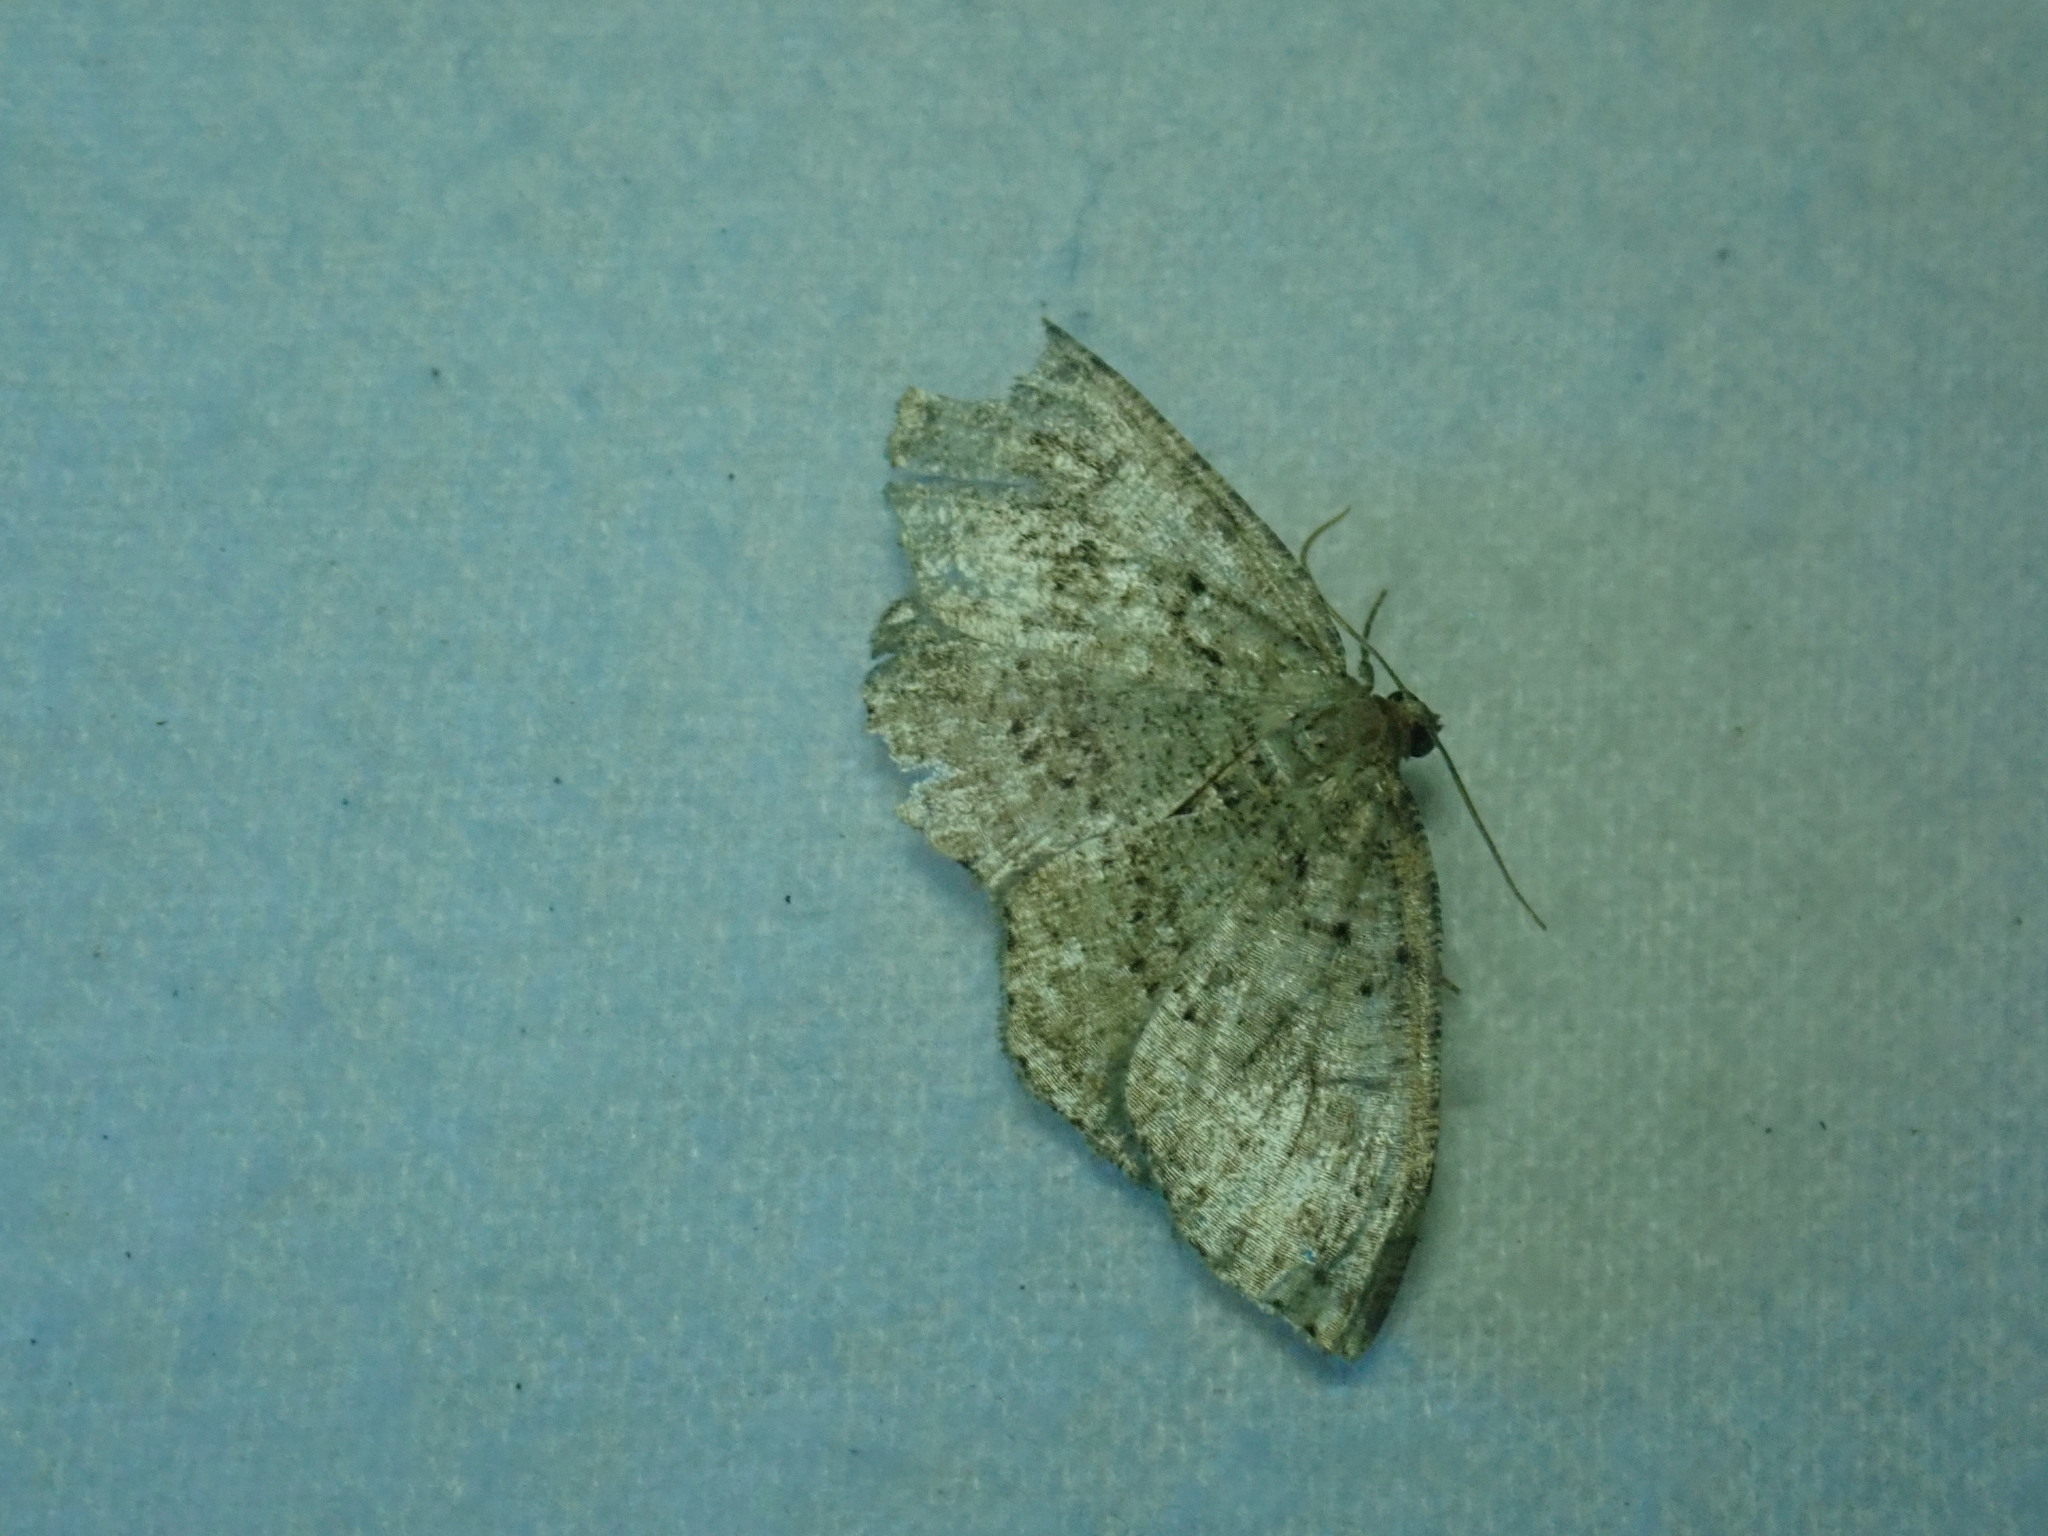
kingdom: Animalia
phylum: Arthropoda
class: Insecta
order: Lepidoptera
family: Geometridae
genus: Homochlodes
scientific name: Homochlodes fritillaria
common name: Pale homochlodes
